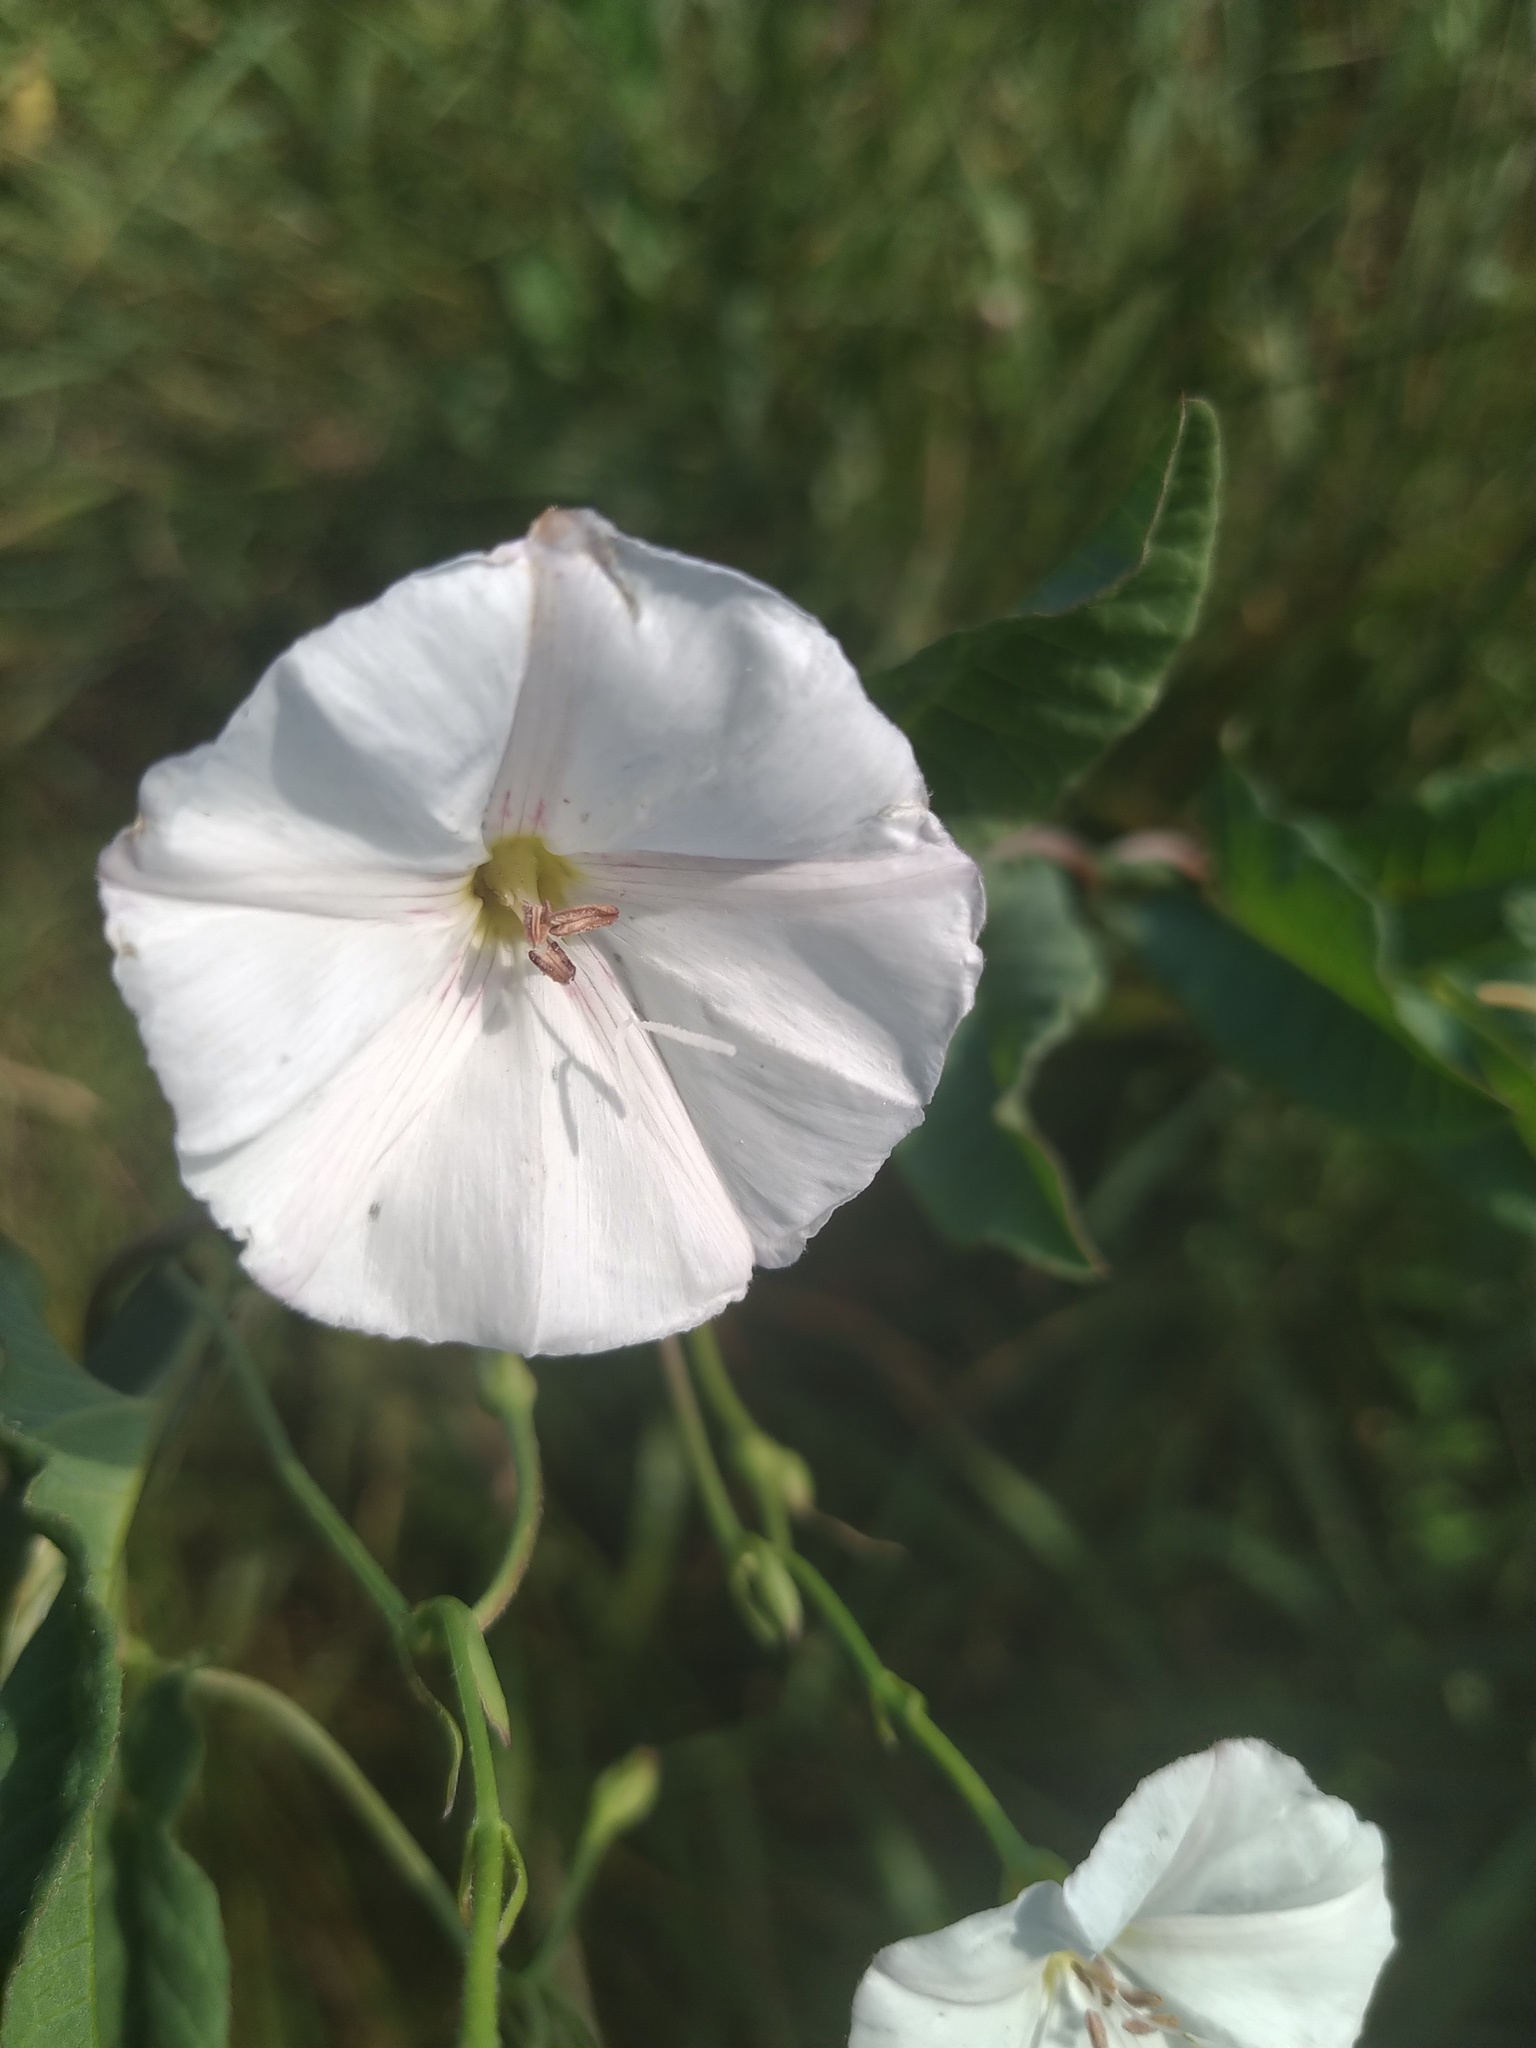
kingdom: Plantae
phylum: Tracheophyta
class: Magnoliopsida
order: Solanales
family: Convolvulaceae
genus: Convolvulus
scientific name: Convolvulus arvensis
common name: Field bindweed
